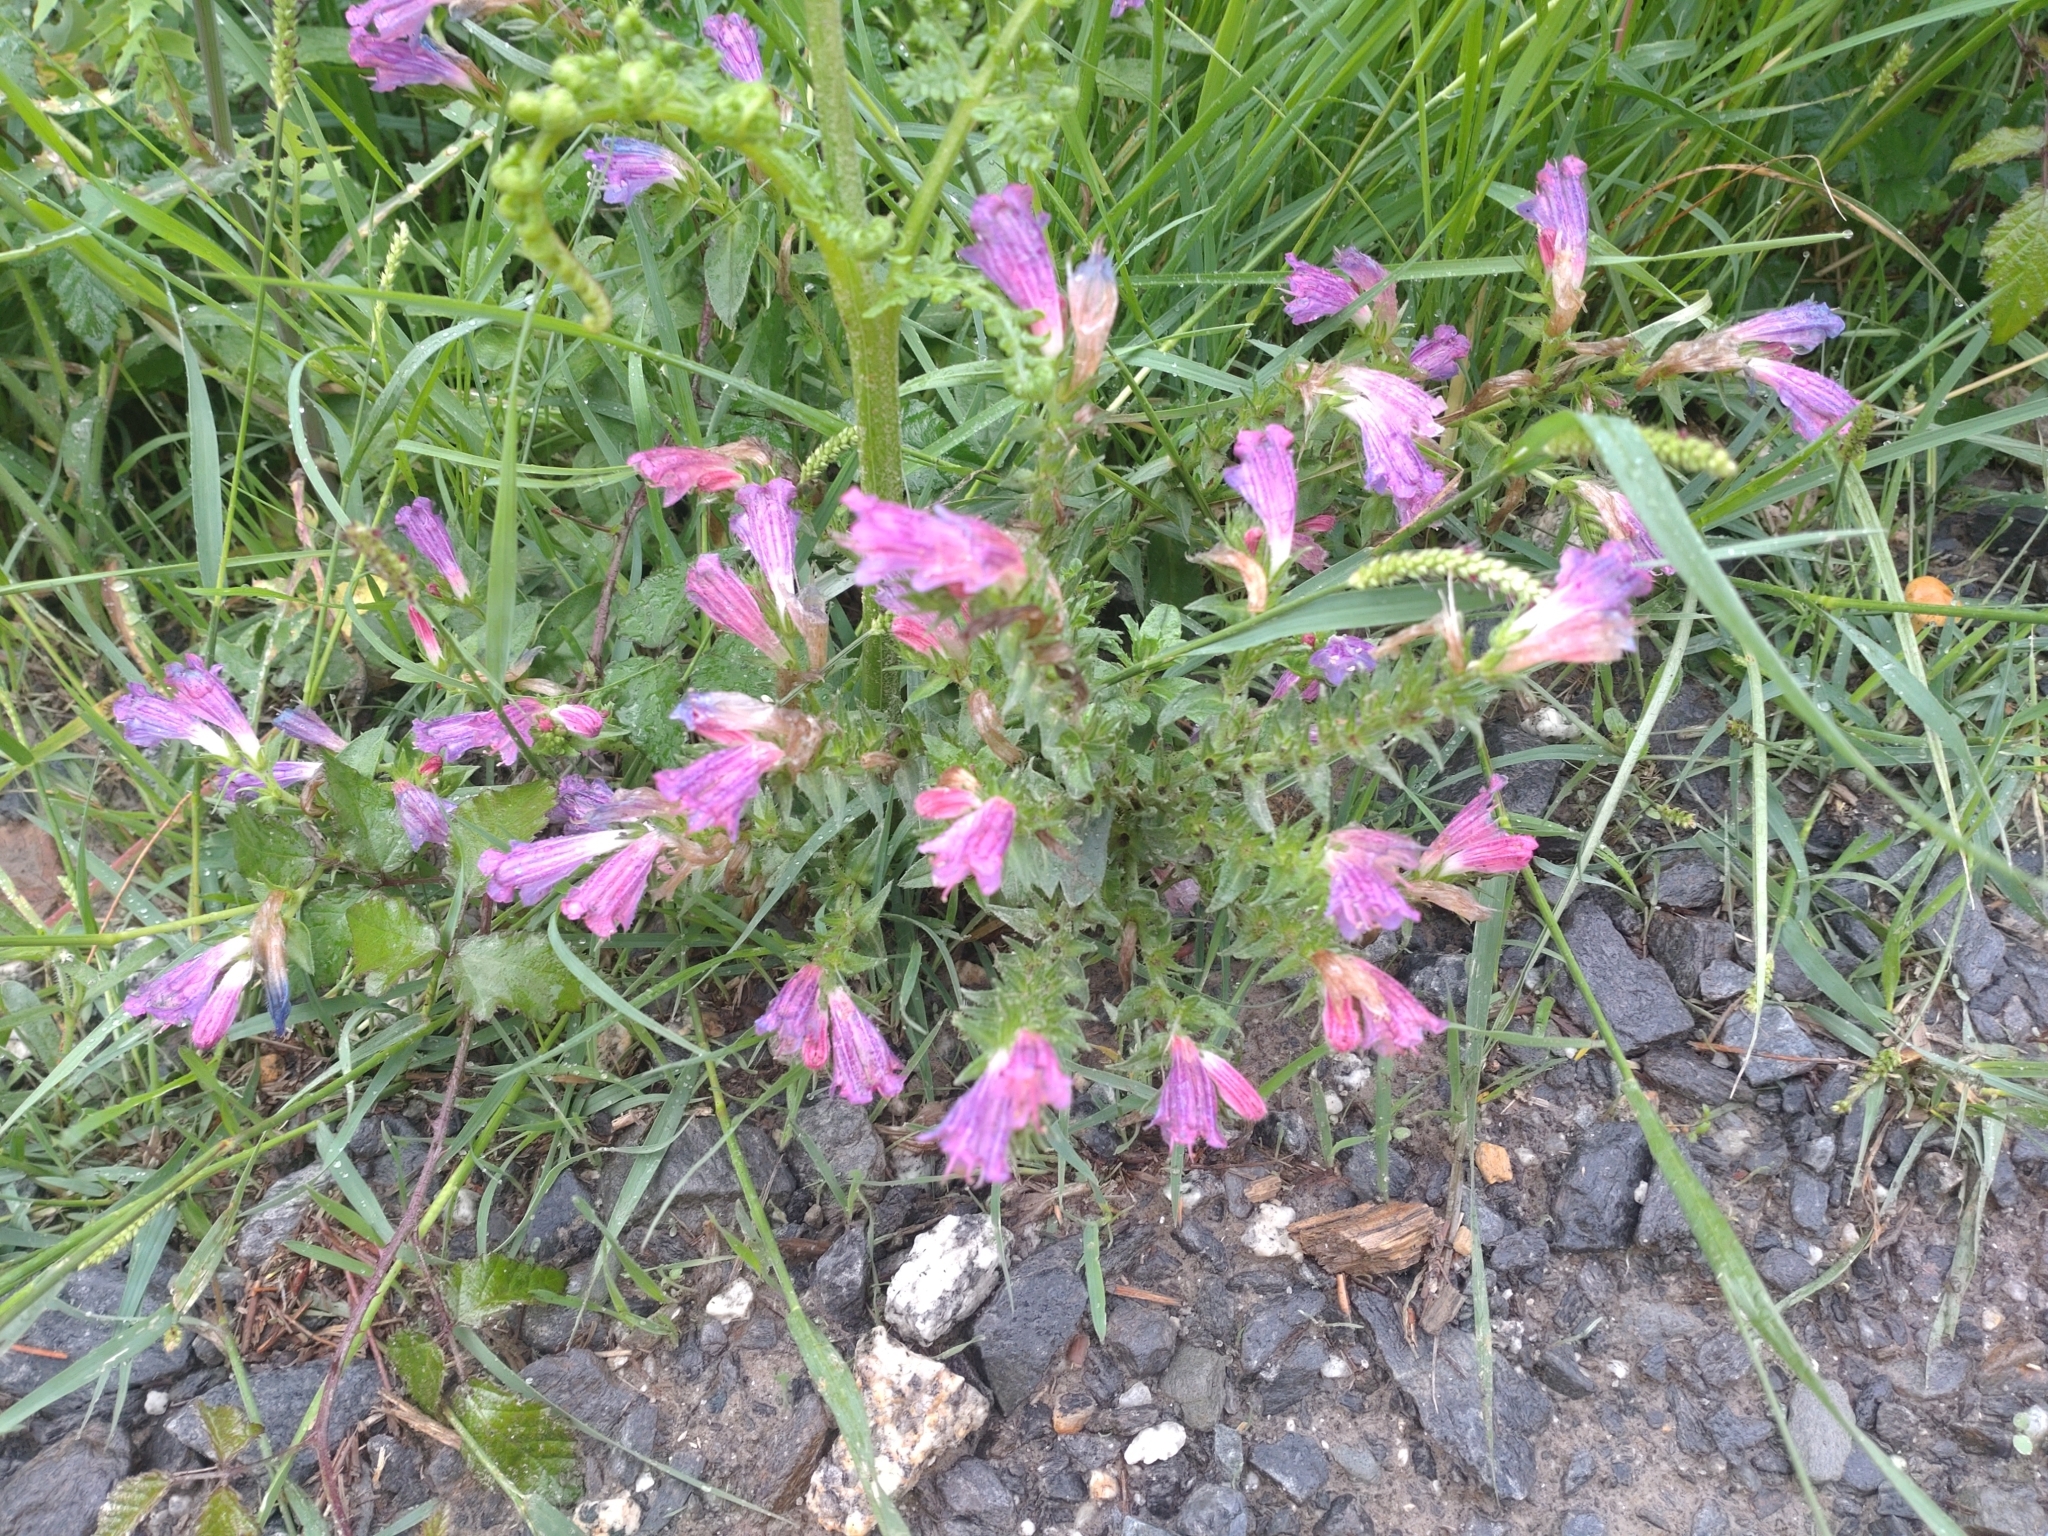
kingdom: Plantae
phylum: Tracheophyta
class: Magnoliopsida
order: Boraginales
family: Boraginaceae
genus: Echium
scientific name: Echium rosulatum
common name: Lax viper's-bugloss
